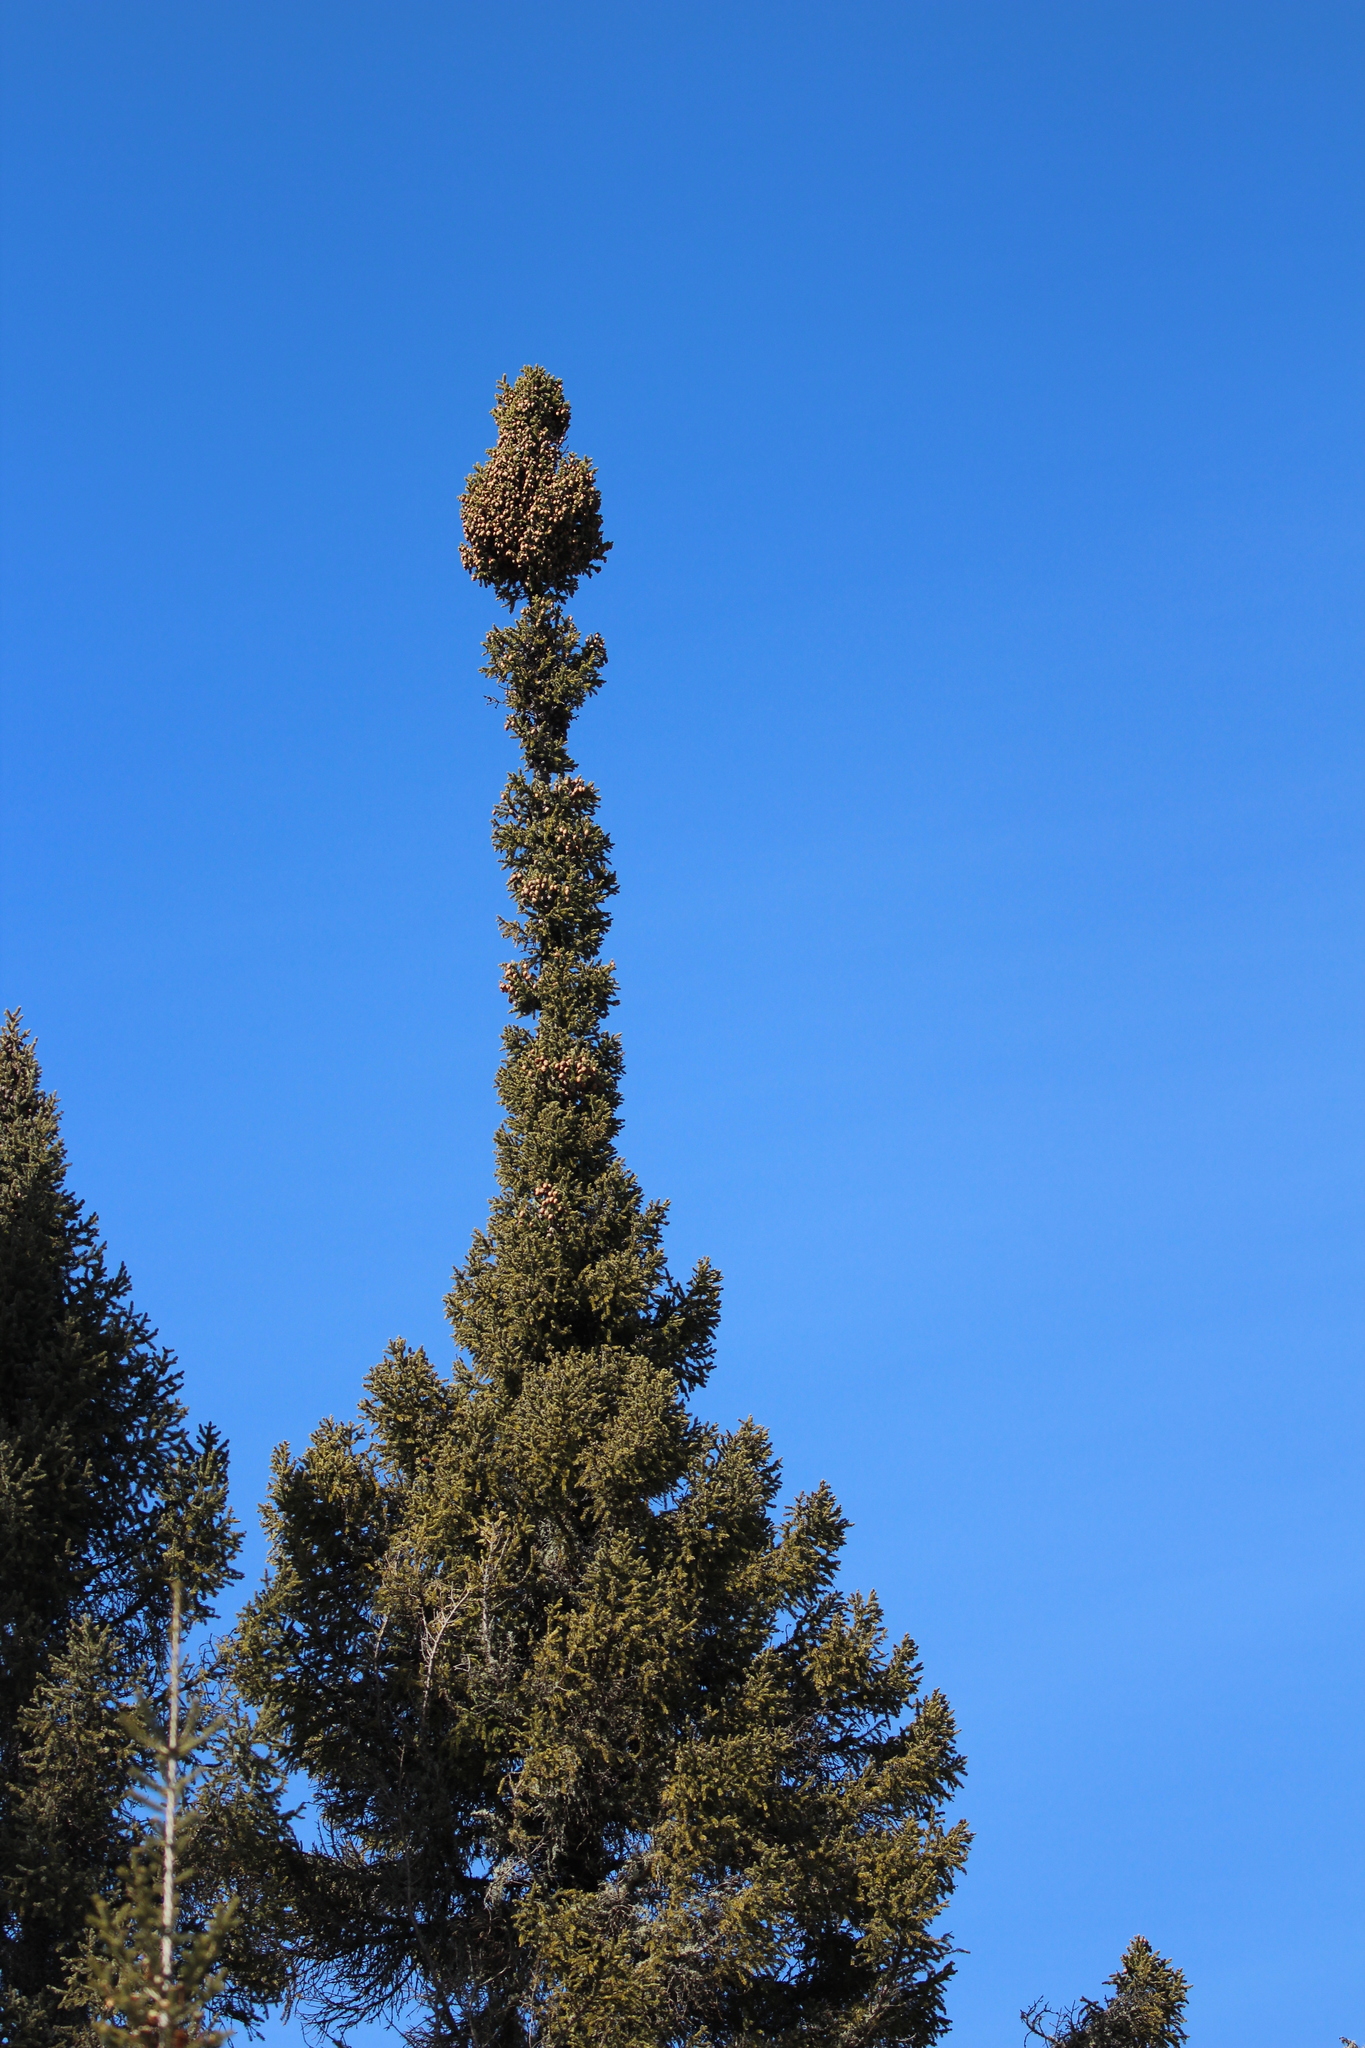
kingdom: Plantae
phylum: Tracheophyta
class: Pinopsida
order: Pinales
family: Pinaceae
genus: Picea
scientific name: Picea mariana
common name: Black spruce
